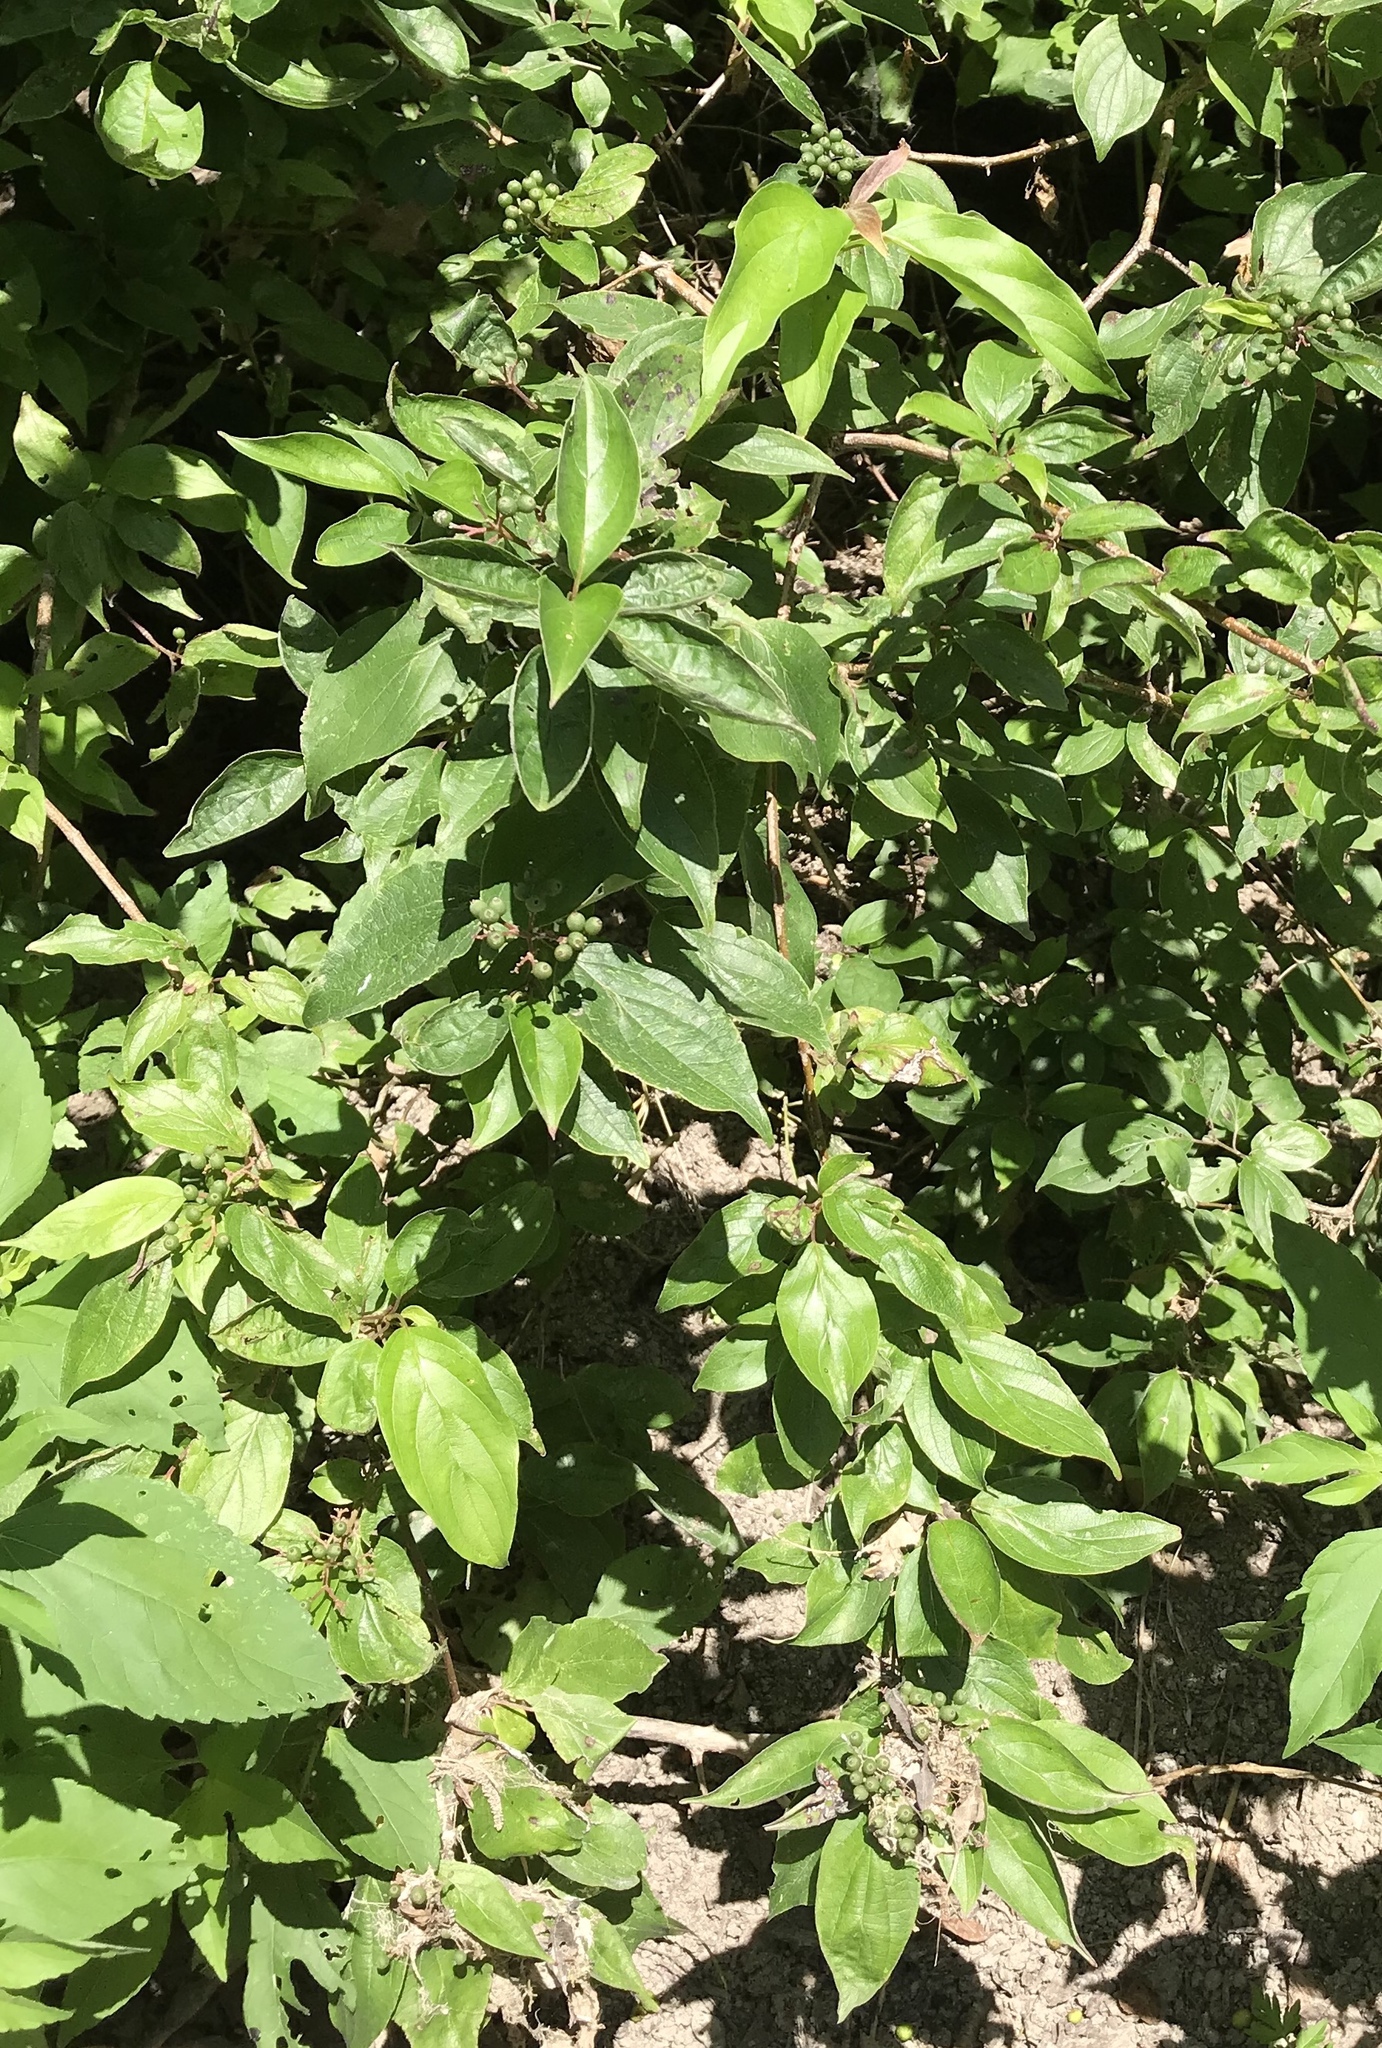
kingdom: Plantae
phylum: Tracheophyta
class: Magnoliopsida
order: Cornales
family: Cornaceae
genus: Cornus
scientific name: Cornus drummondii
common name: Rough-leaf dogwood
